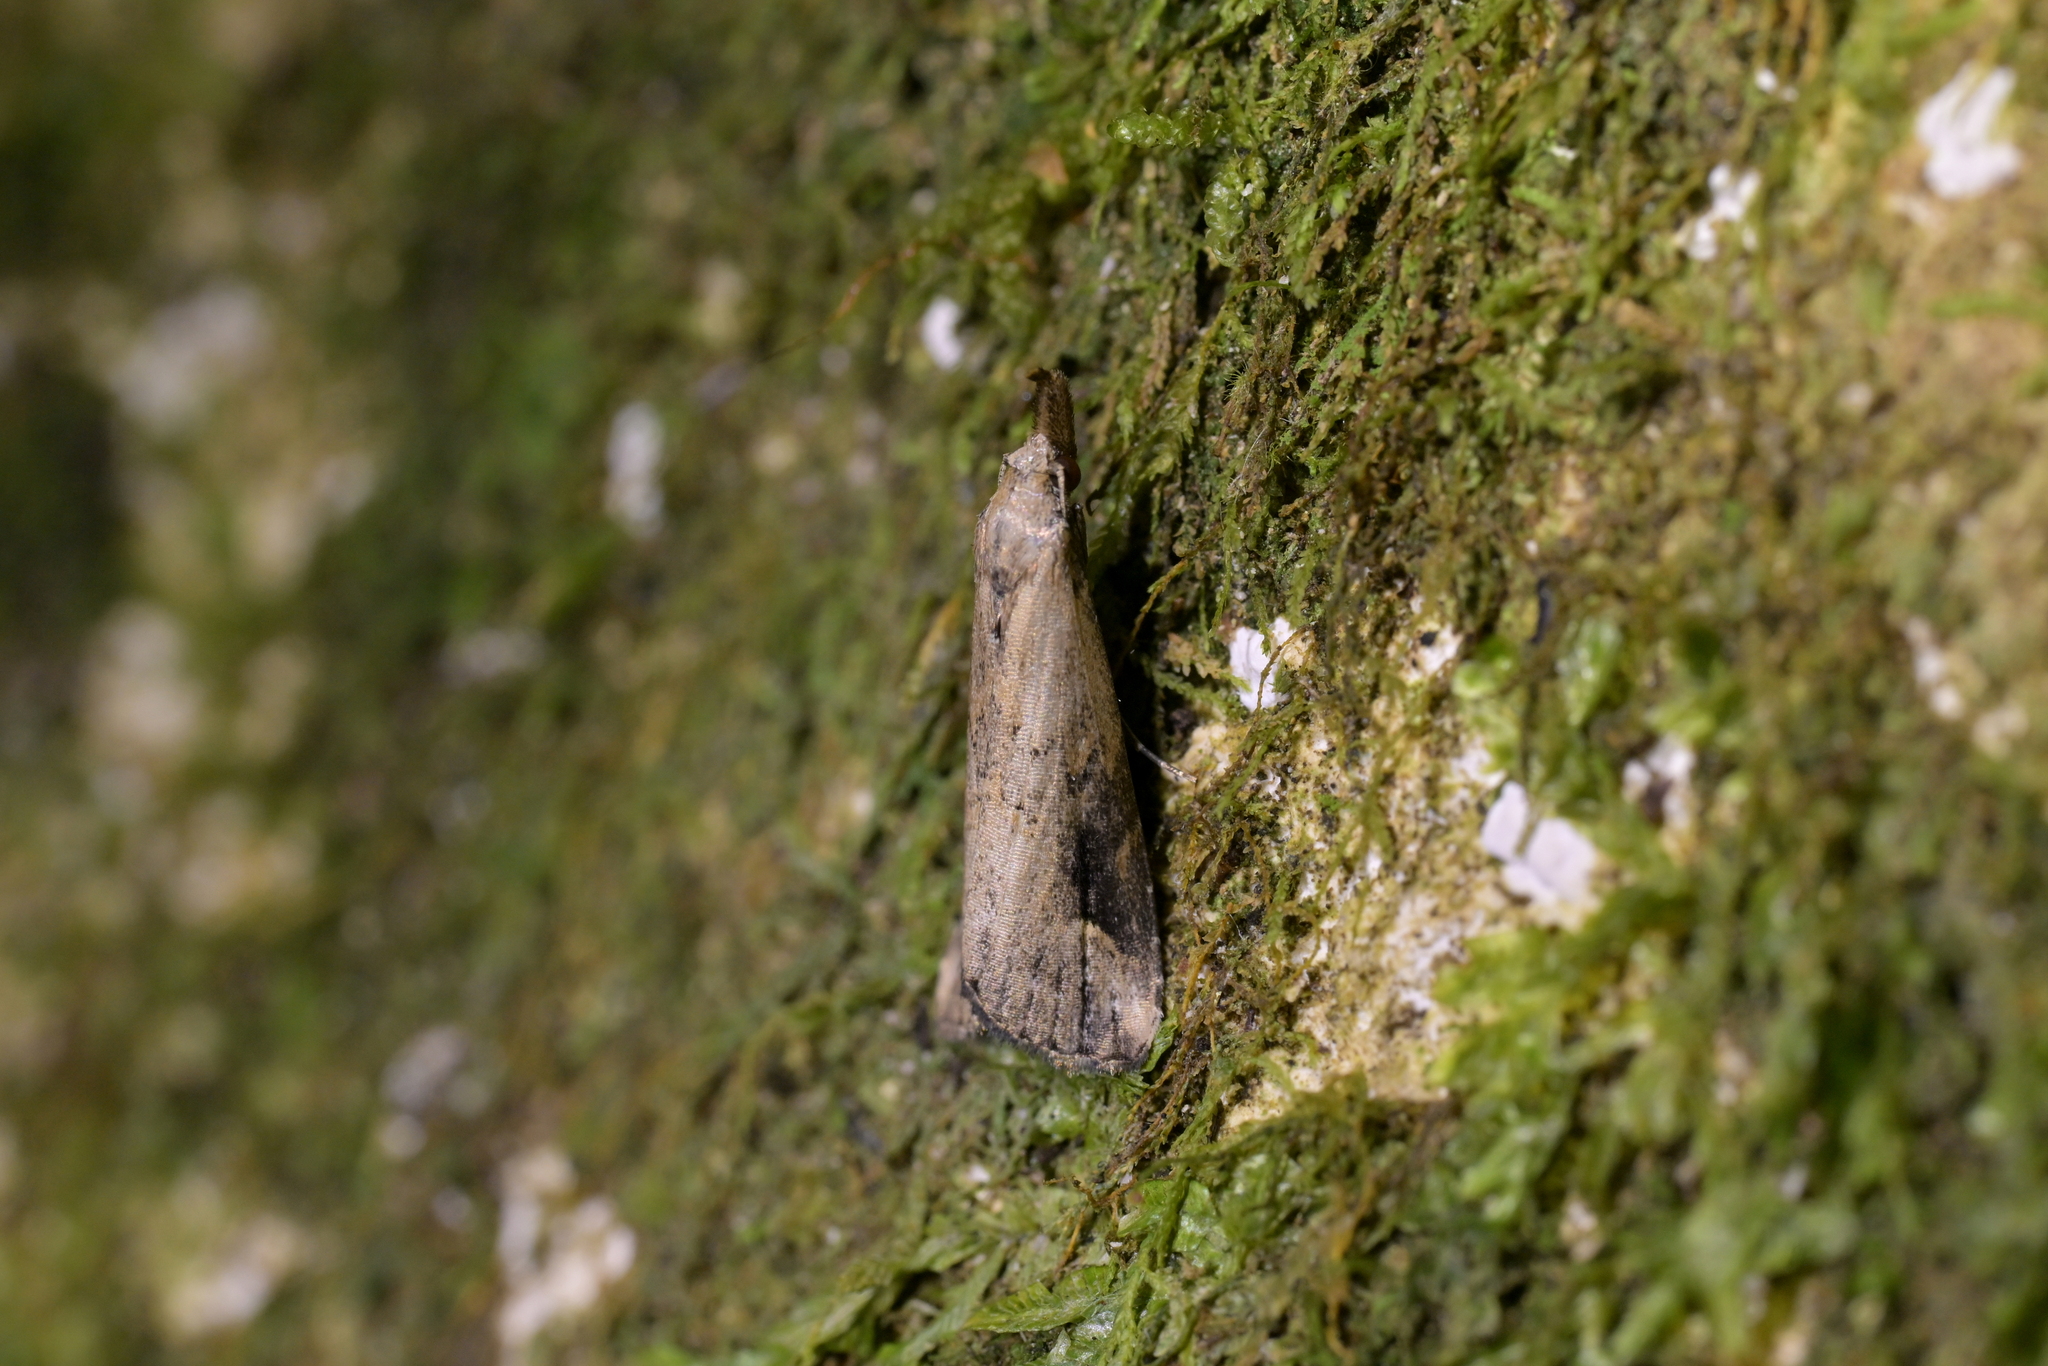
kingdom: Animalia
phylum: Arthropoda
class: Insecta
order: Lepidoptera
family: Erebidae
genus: Schrankia
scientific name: Schrankia costaestrigalis
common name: Pinion-streaked snout
